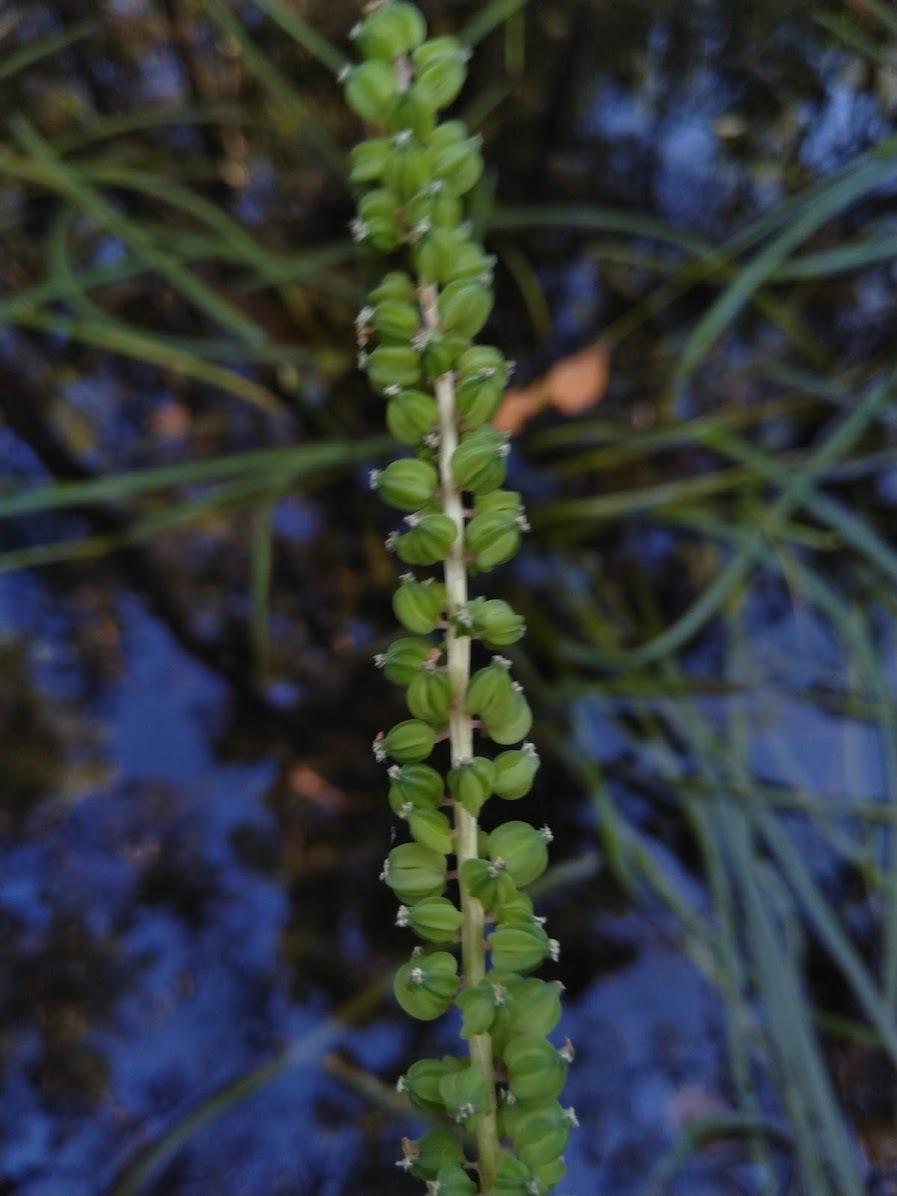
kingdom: Plantae
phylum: Tracheophyta
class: Liliopsida
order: Alismatales
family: Juncaginaceae
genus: Cycnogeton
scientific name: Cycnogeton multifructum
